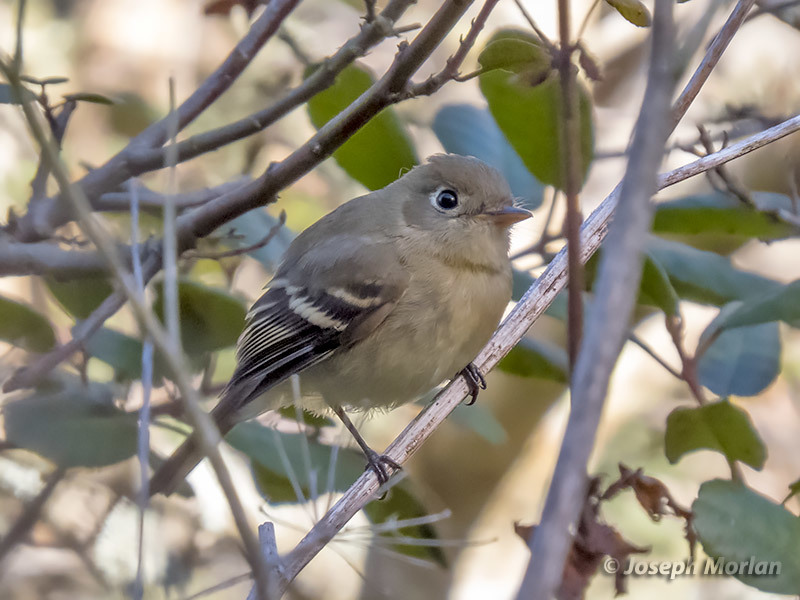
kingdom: Animalia
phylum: Chordata
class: Aves
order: Passeriformes
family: Tyrannidae
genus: Empidonax
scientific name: Empidonax difficilis
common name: Pacific-slope flycatcher
